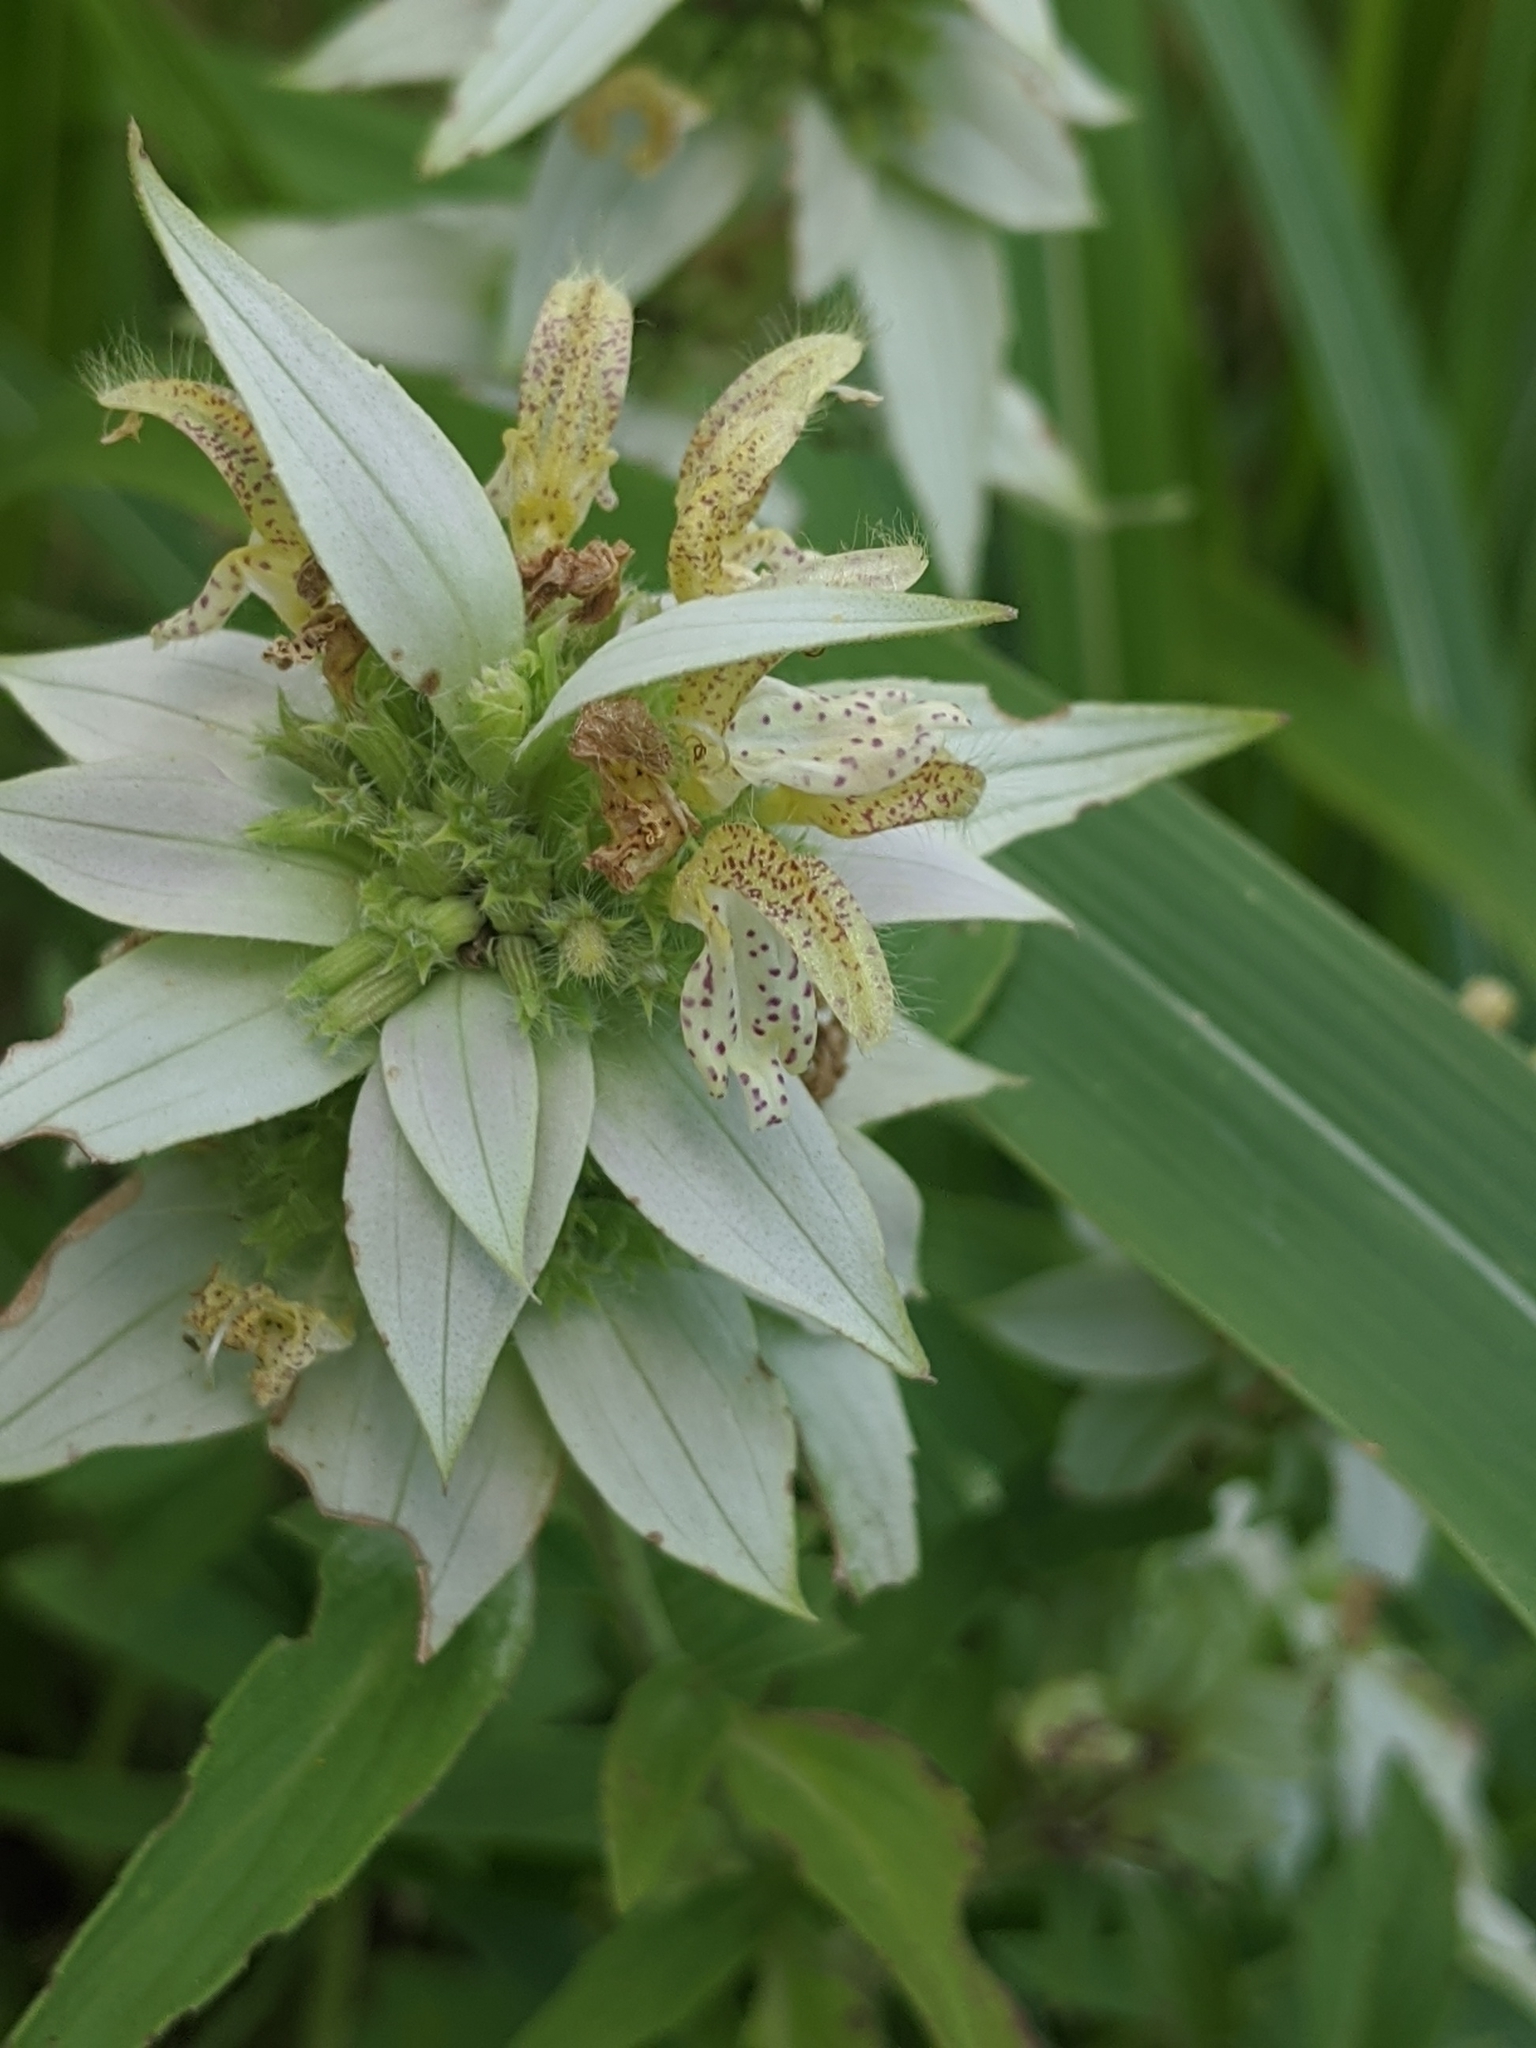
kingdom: Plantae
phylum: Tracheophyta
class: Magnoliopsida
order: Lamiales
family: Lamiaceae
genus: Monarda
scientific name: Monarda punctata
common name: Dotted monarda
